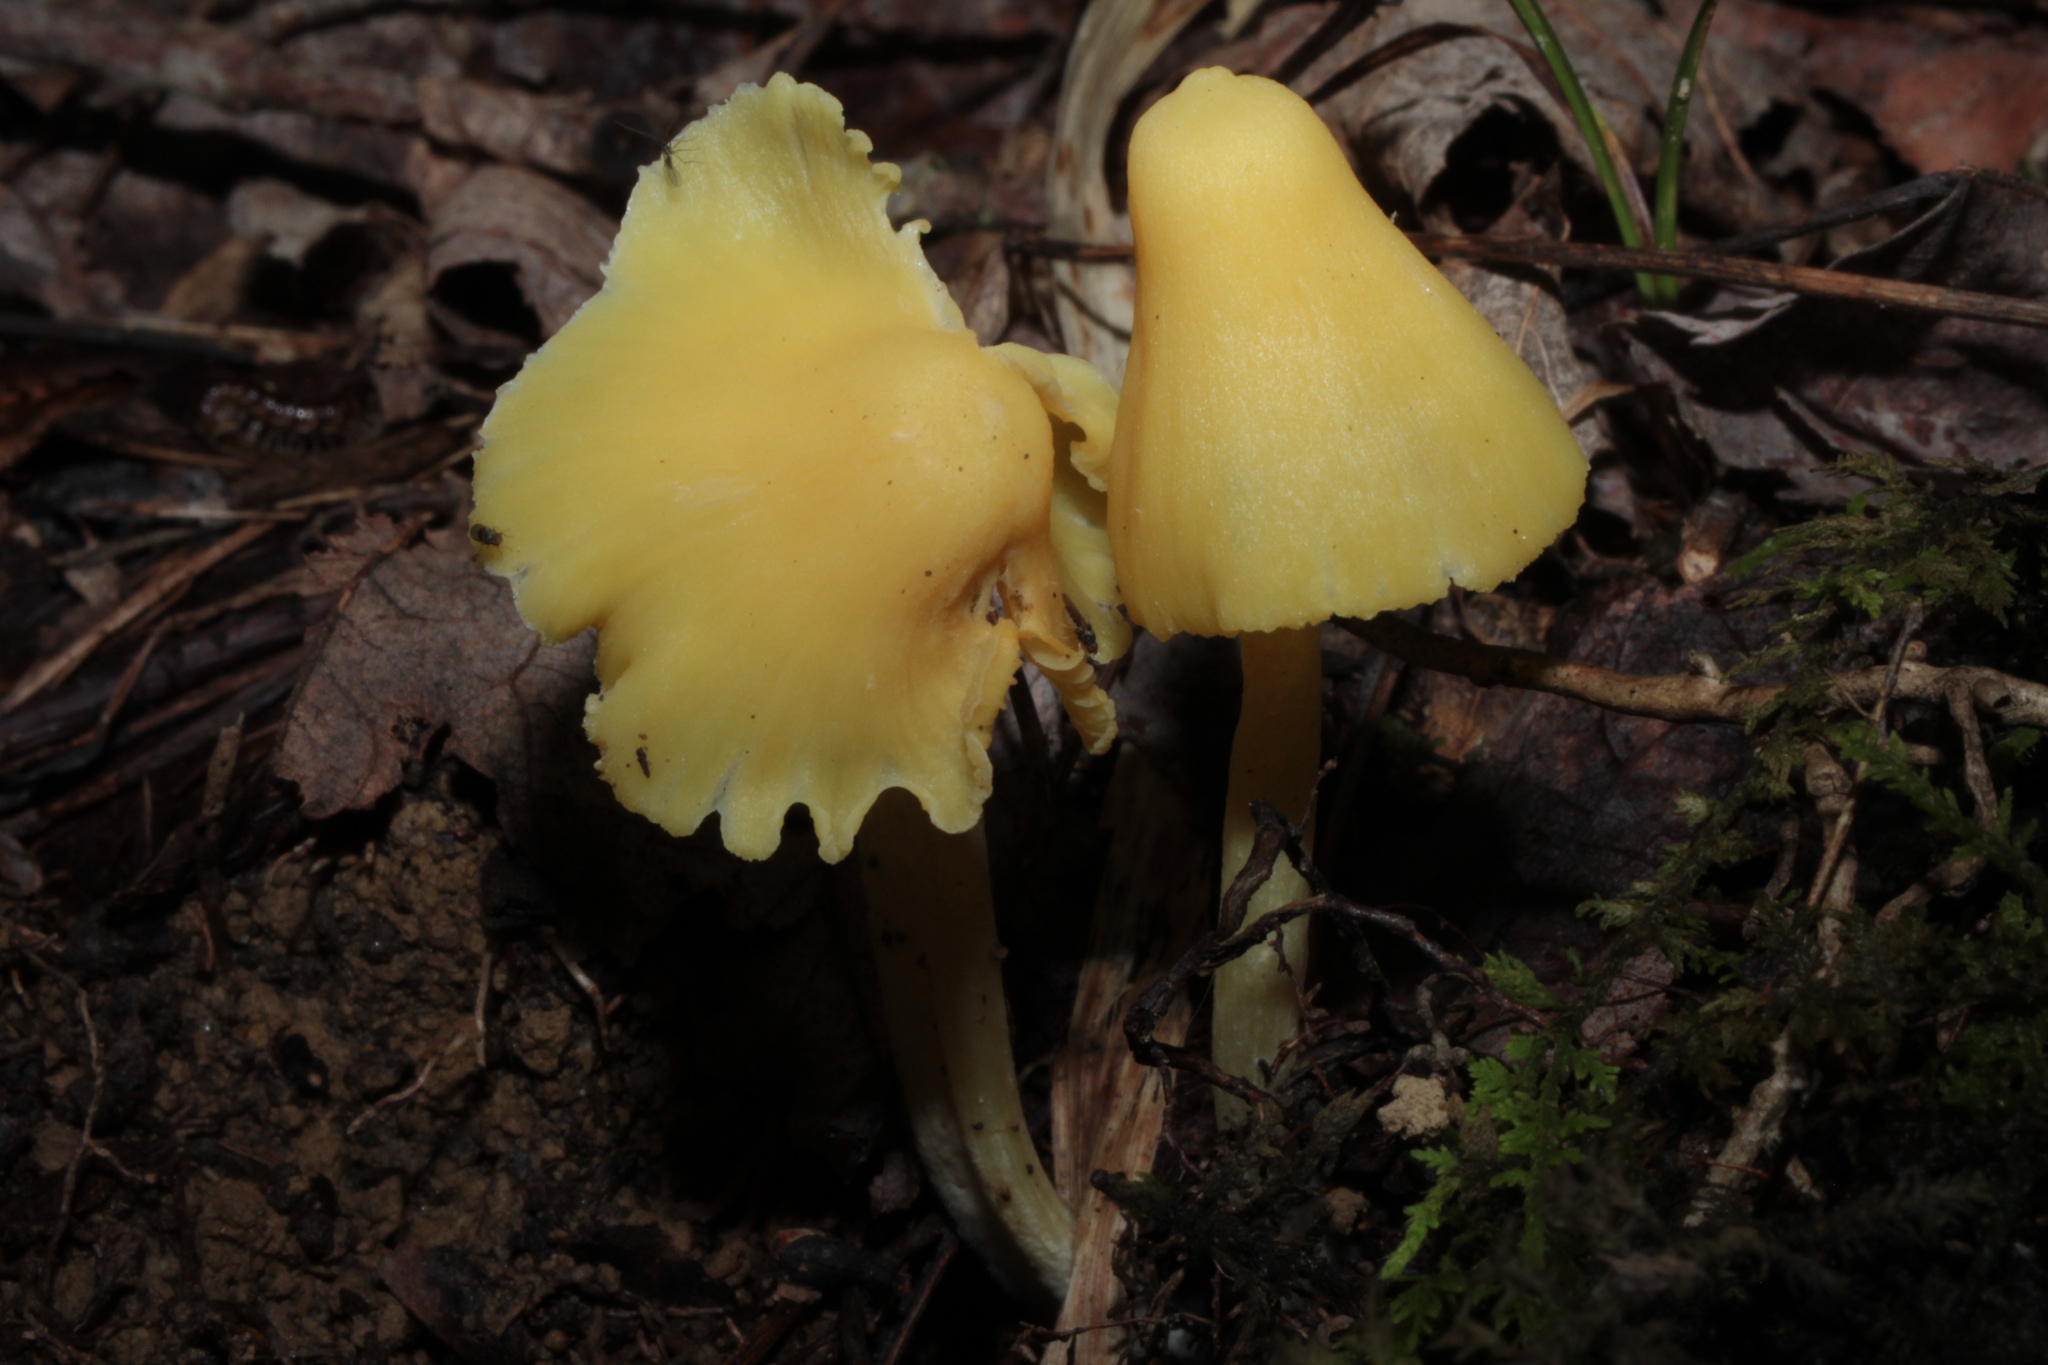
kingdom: Fungi
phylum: Basidiomycota
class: Agaricomycetes
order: Agaricales
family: Entolomataceae
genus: Entoloma
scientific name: Entoloma murrayi
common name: Yellow unicorn entoloma
